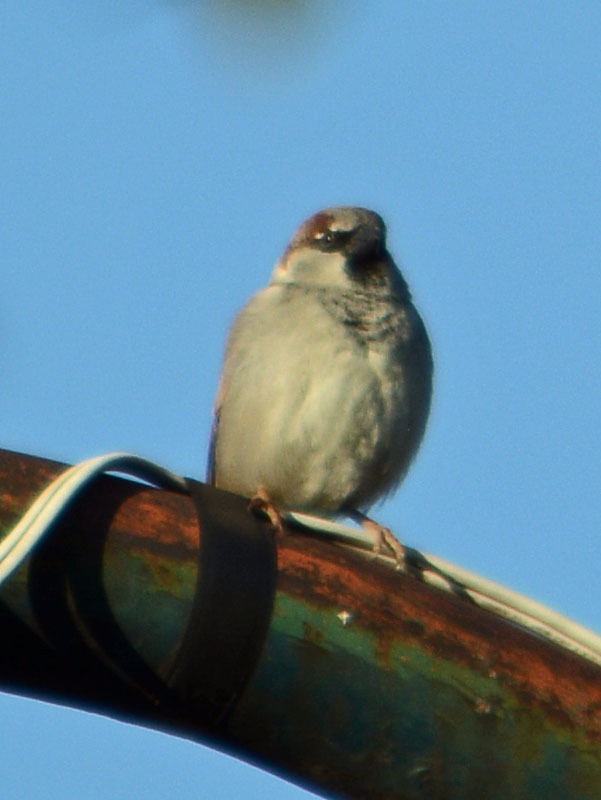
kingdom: Animalia
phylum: Chordata
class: Aves
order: Passeriformes
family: Passeridae
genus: Passer
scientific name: Passer domesticus
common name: House sparrow
